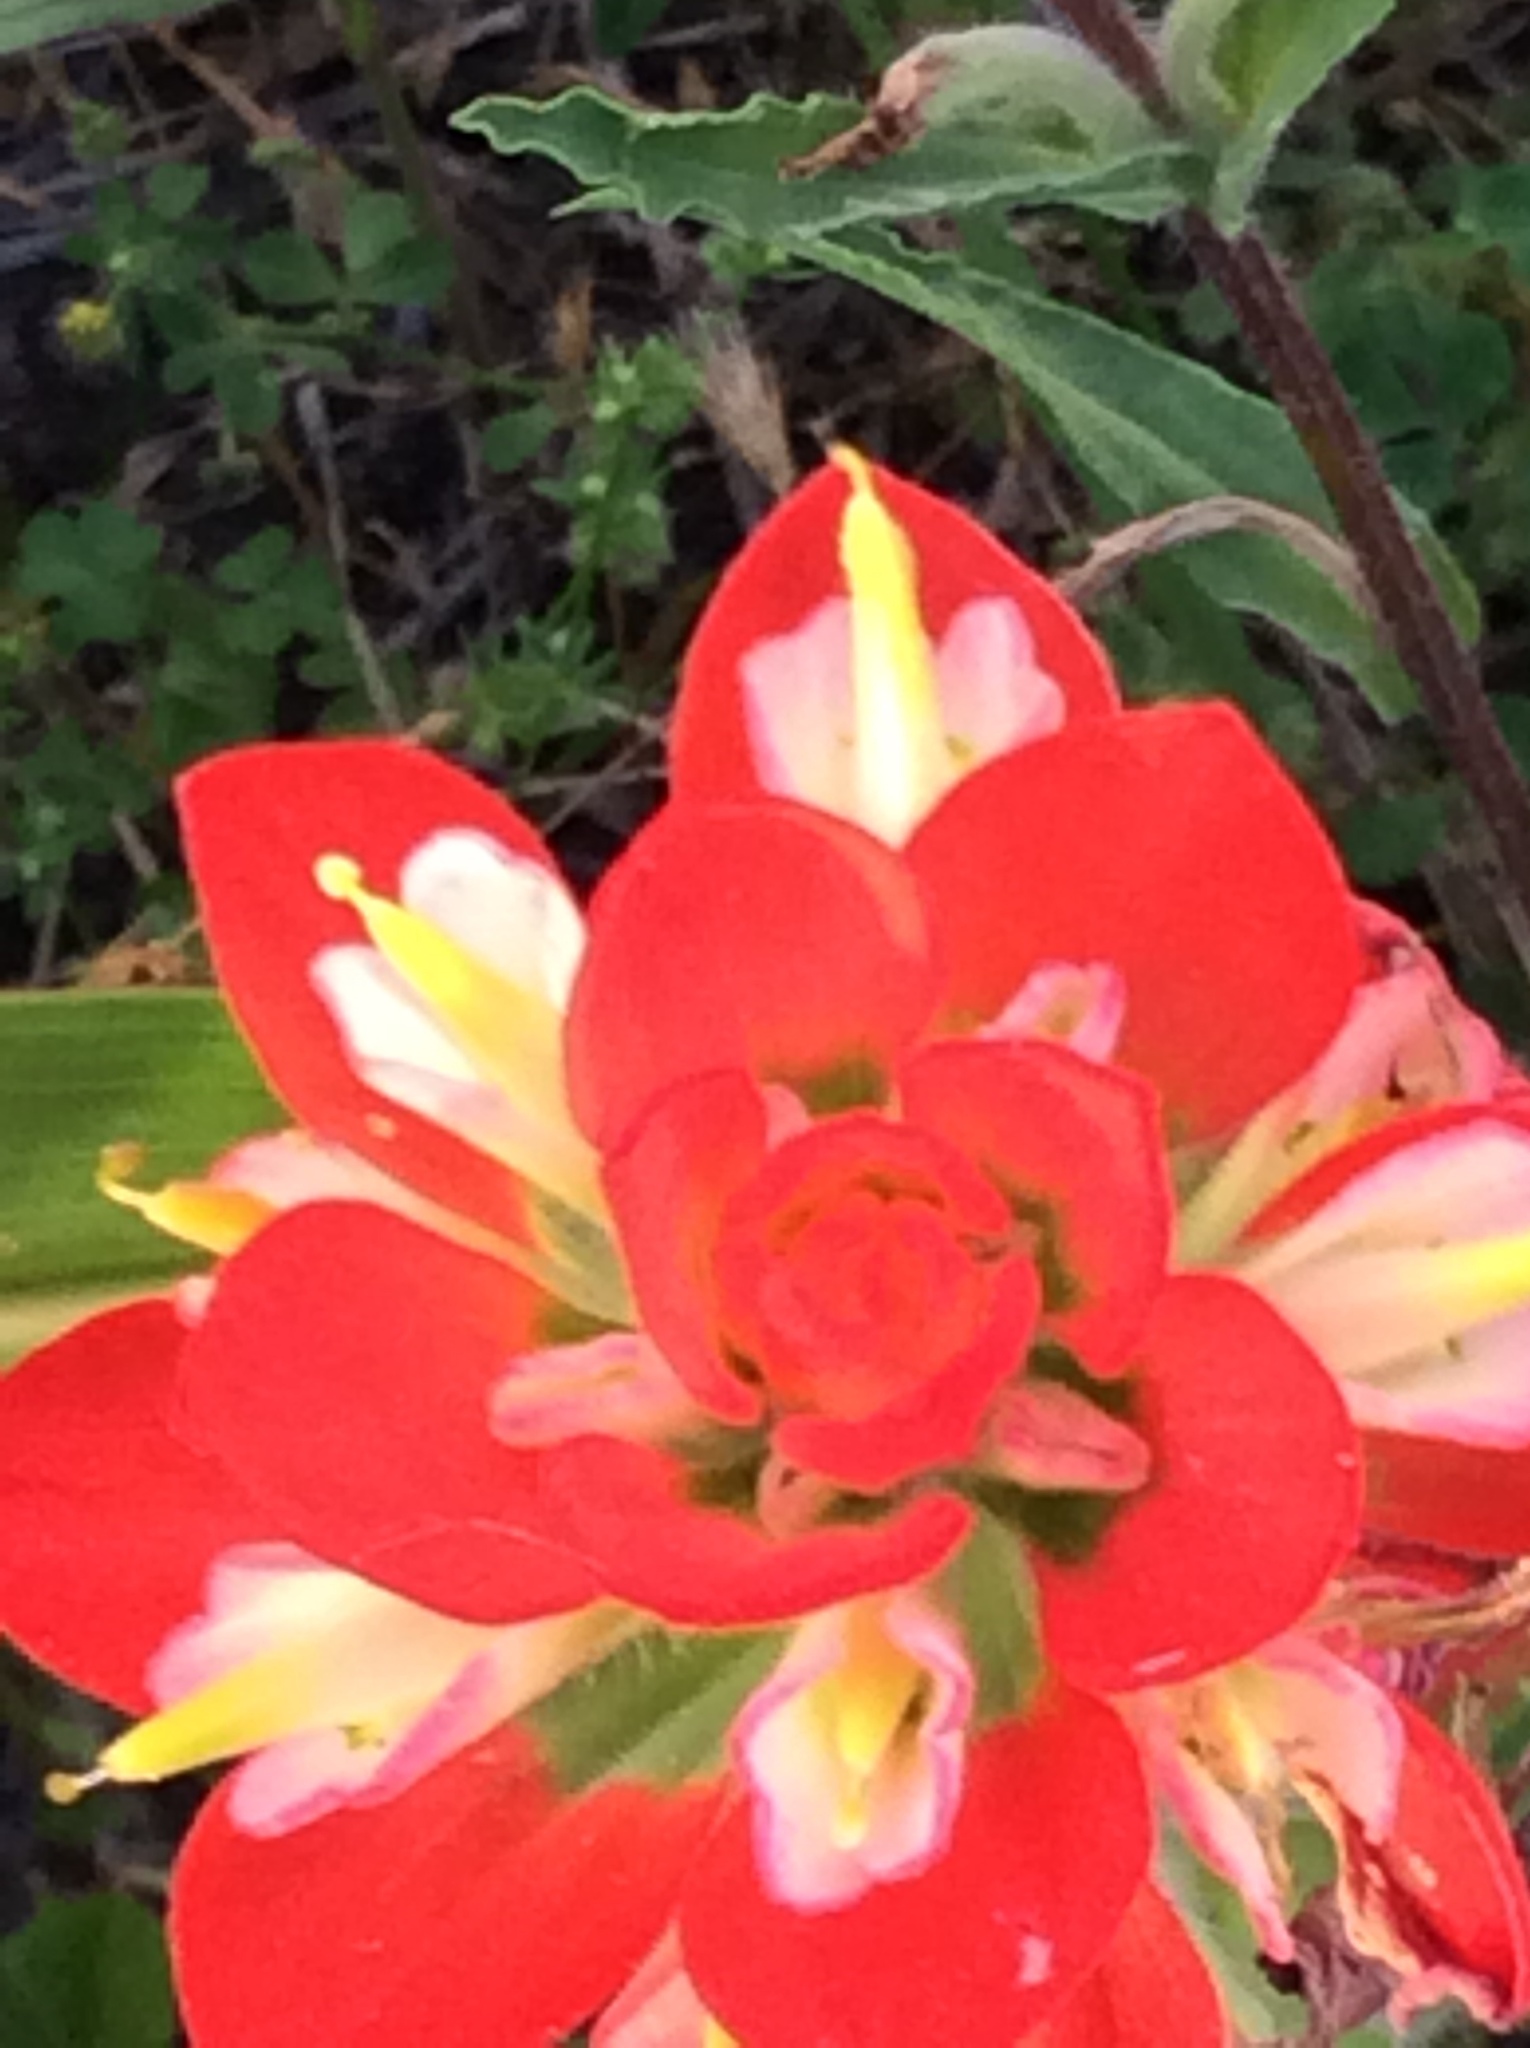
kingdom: Plantae
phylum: Tracheophyta
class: Magnoliopsida
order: Lamiales
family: Orobanchaceae
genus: Castilleja
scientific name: Castilleja indivisa
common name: Texas paintbrush
